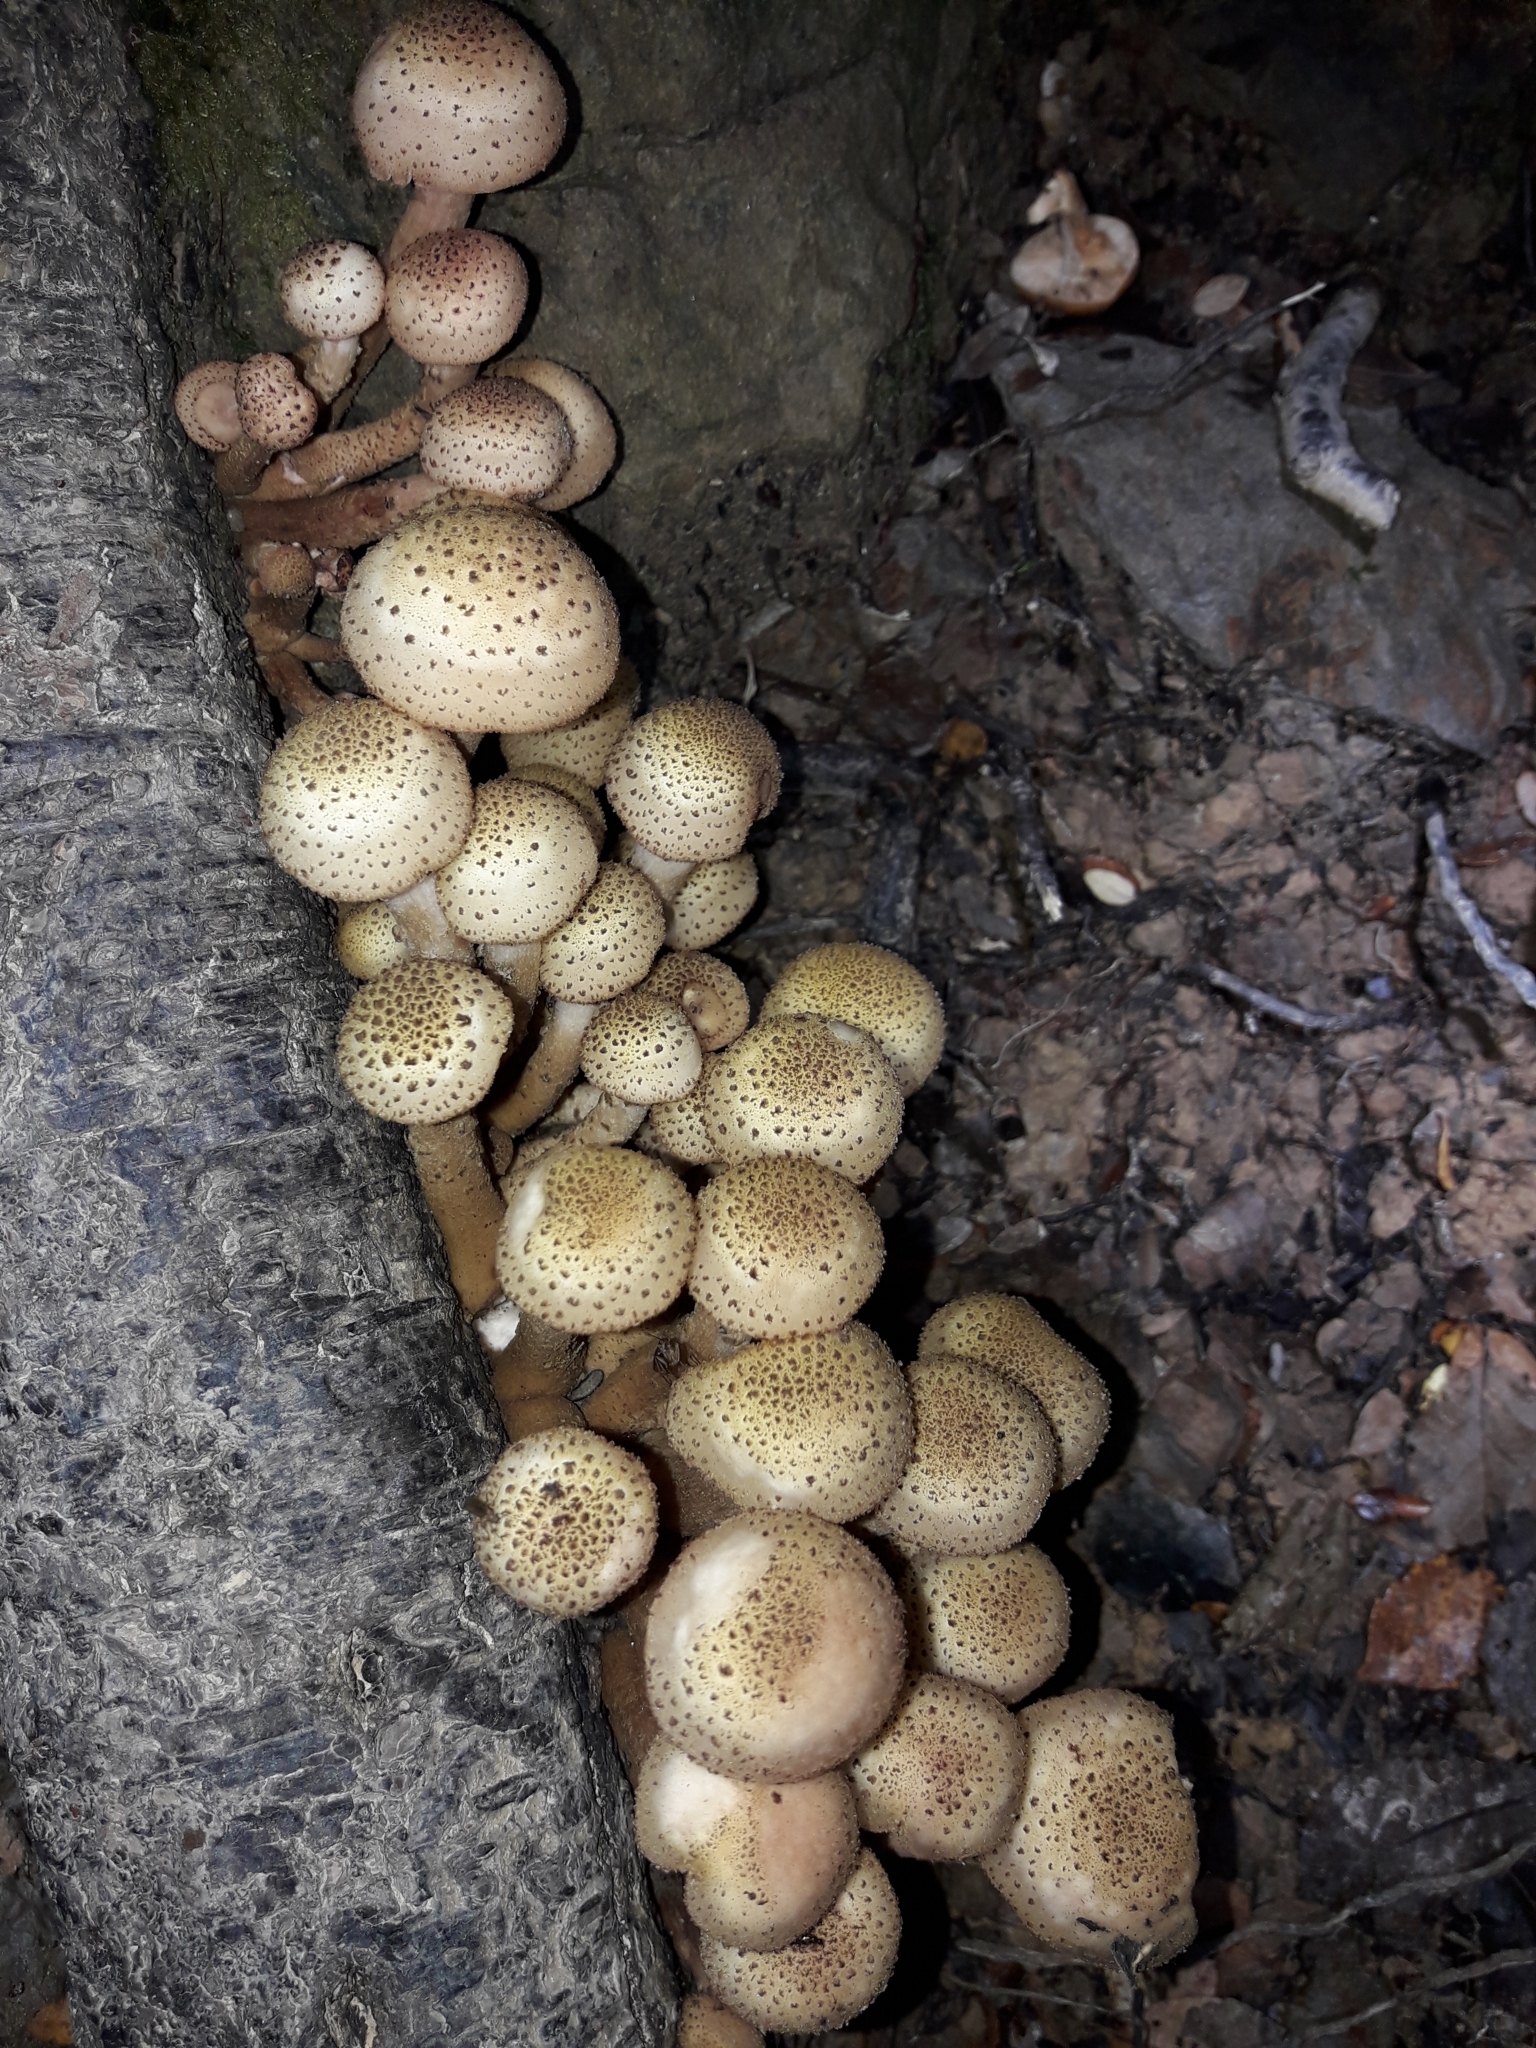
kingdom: Fungi
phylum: Basidiomycota
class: Agaricomycetes
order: Agaricales
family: Physalacriaceae
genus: Armillaria
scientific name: Armillaria limonea
